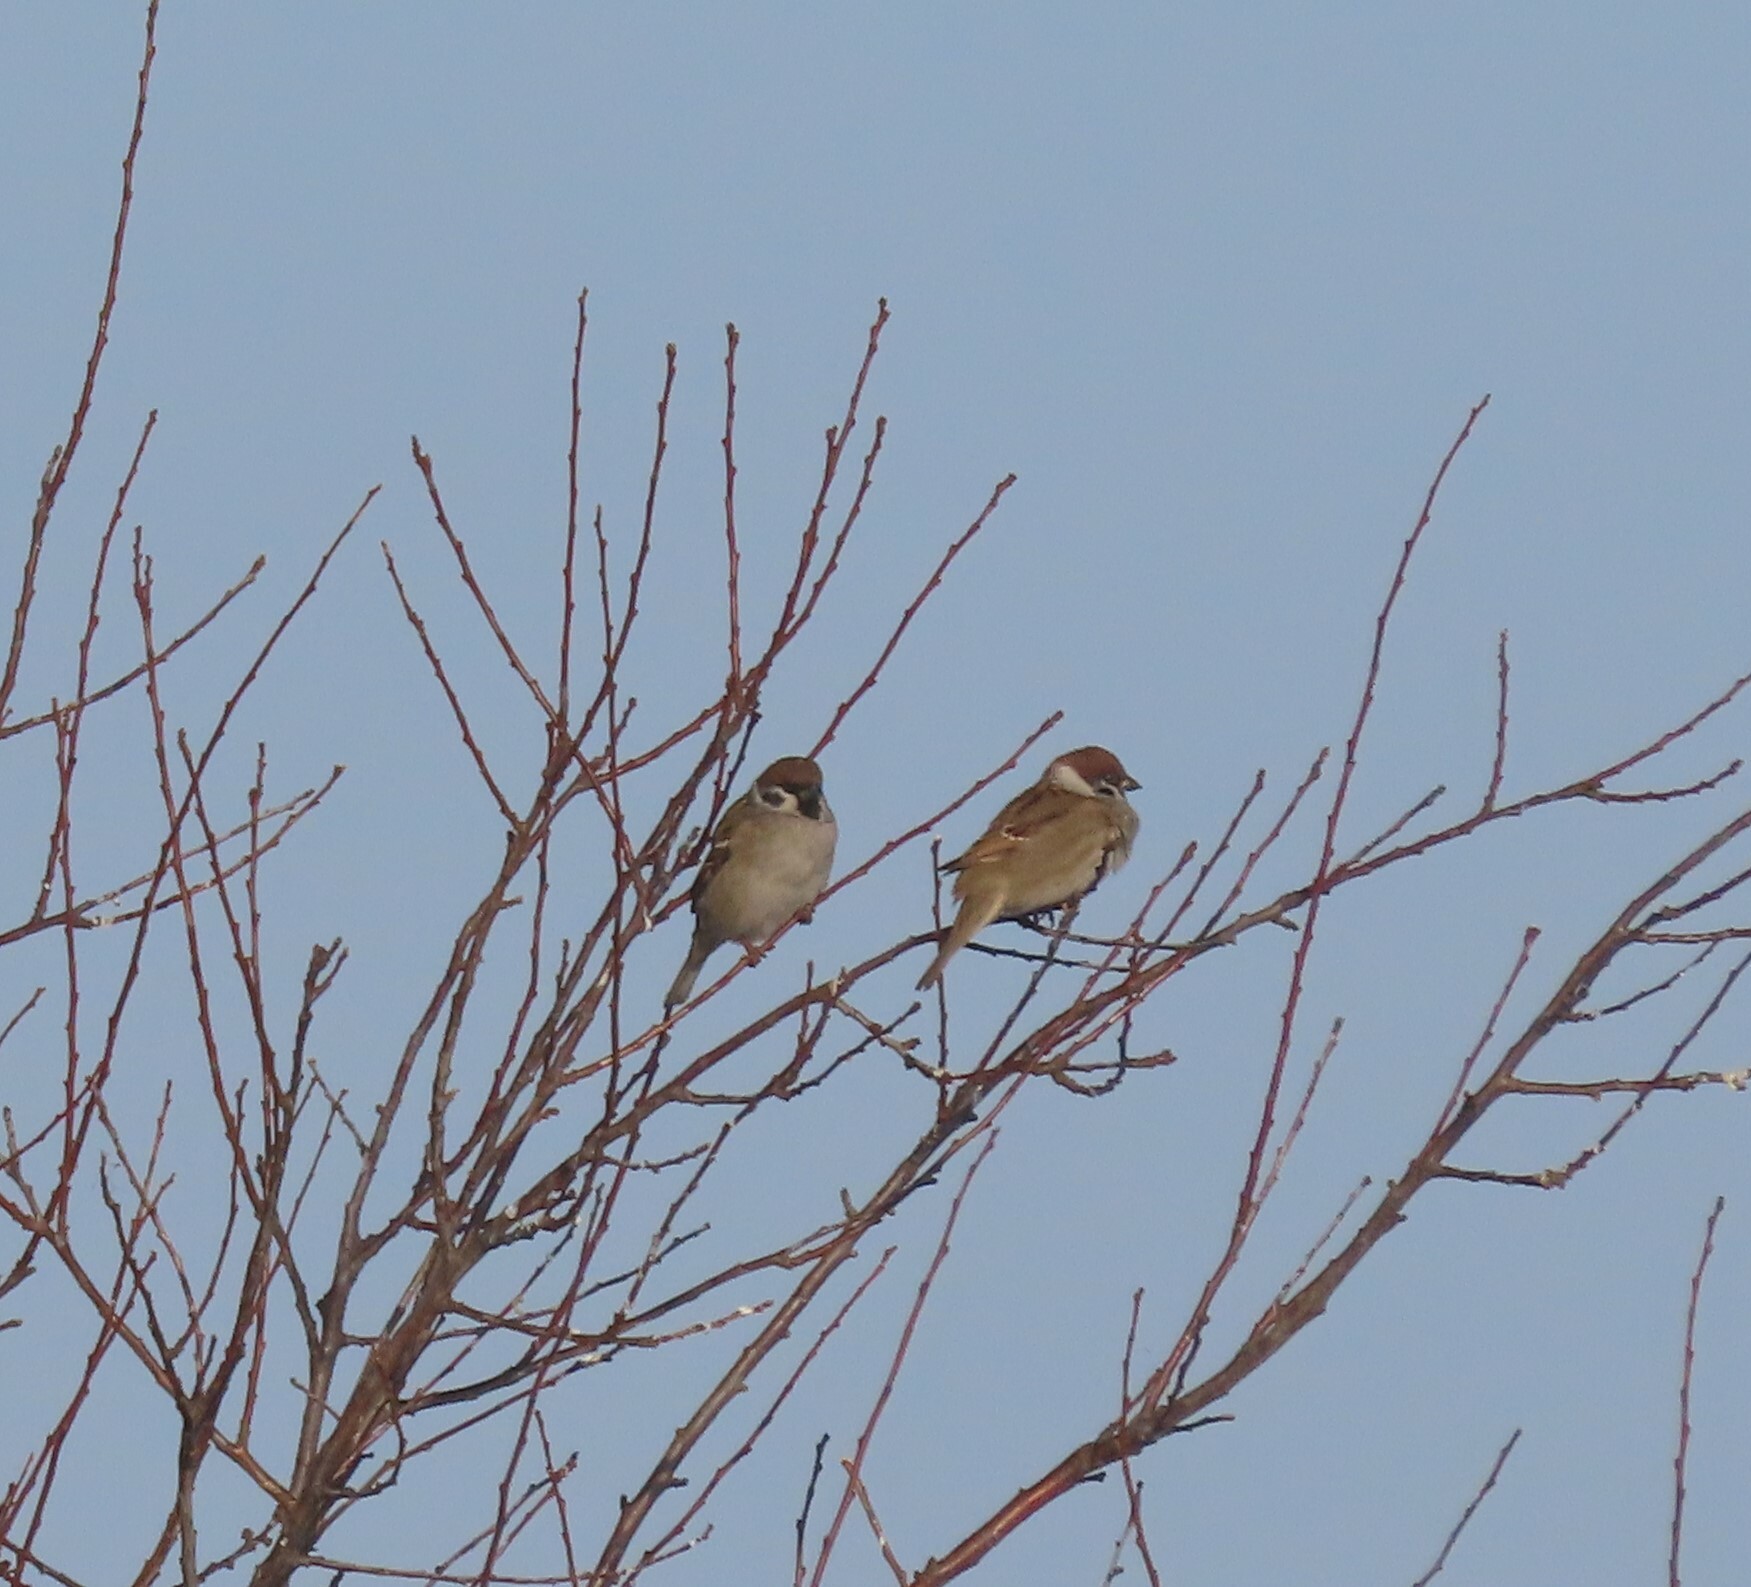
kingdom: Animalia
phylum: Chordata
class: Aves
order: Passeriformes
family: Passeridae
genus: Passer
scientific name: Passer montanus
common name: Eurasian tree sparrow
